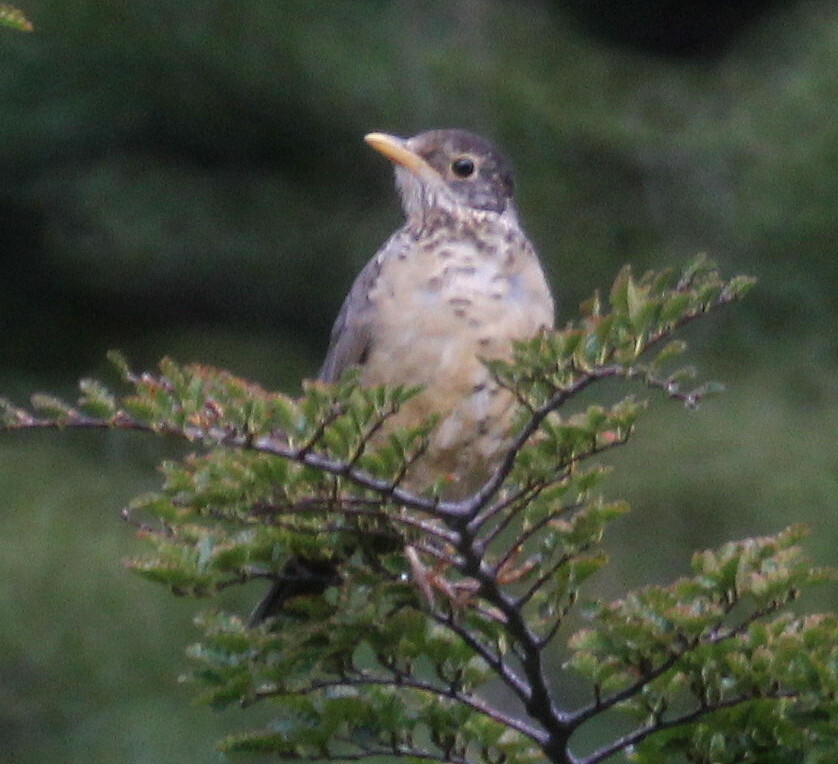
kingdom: Animalia
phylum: Chordata
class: Aves
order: Passeriformes
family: Turdidae
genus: Turdus
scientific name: Turdus falcklandii
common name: Austral thrush
